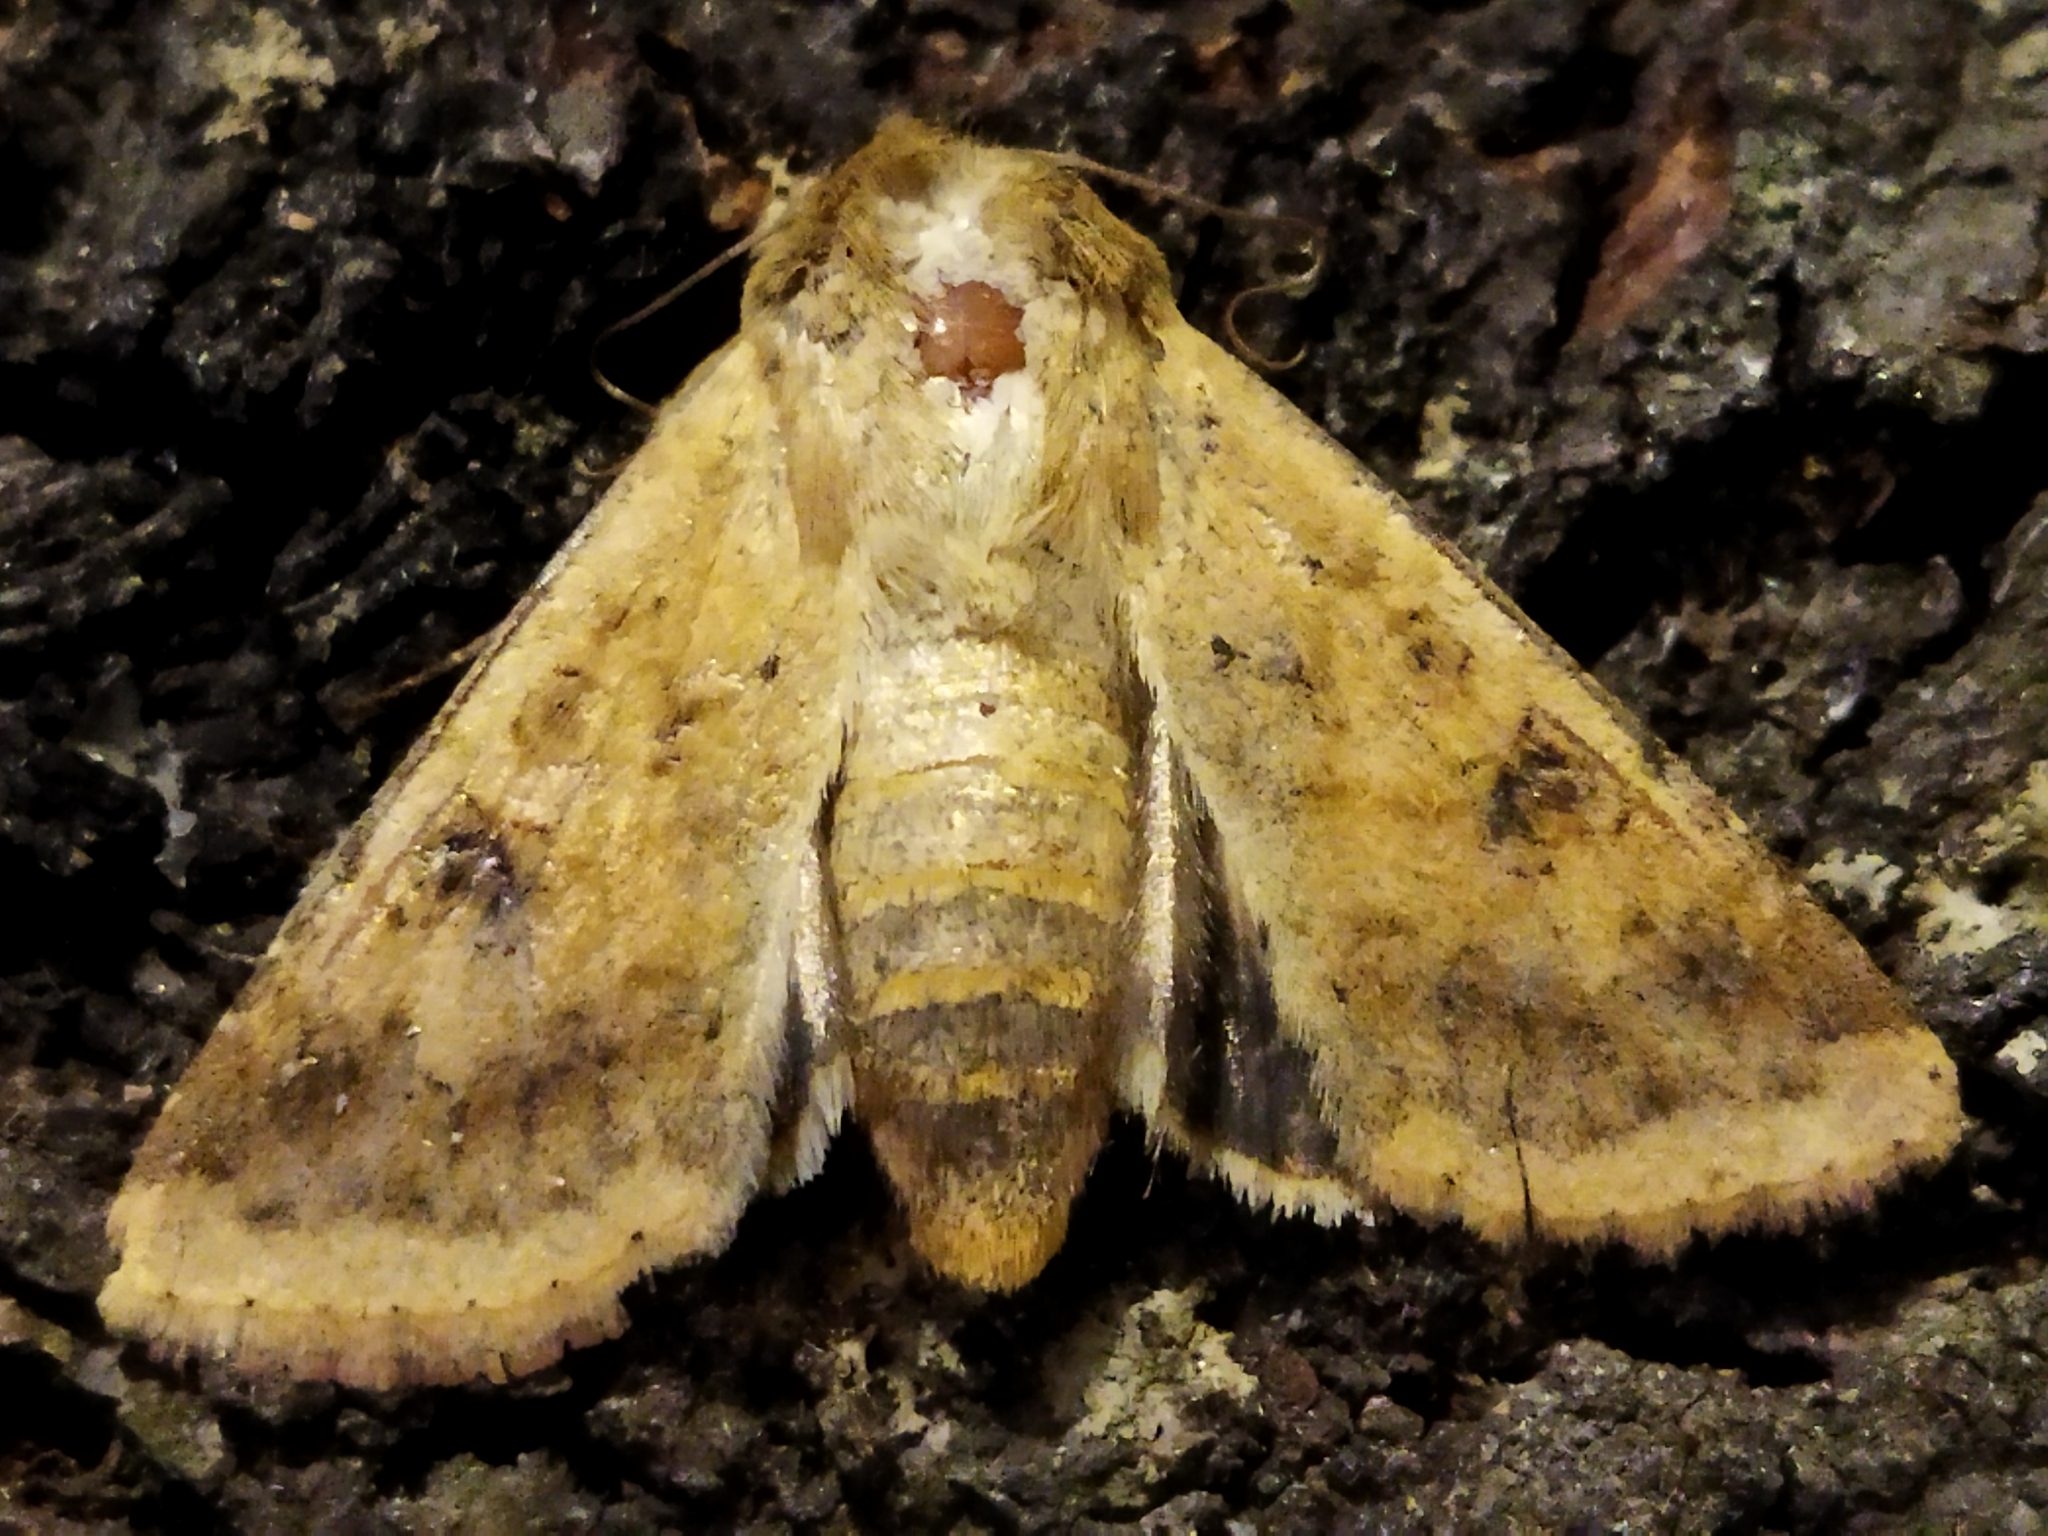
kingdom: Animalia
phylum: Arthropoda
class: Insecta
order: Lepidoptera
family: Noctuidae
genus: Helicoverpa
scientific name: Helicoverpa armigera
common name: Cotton bollworm
